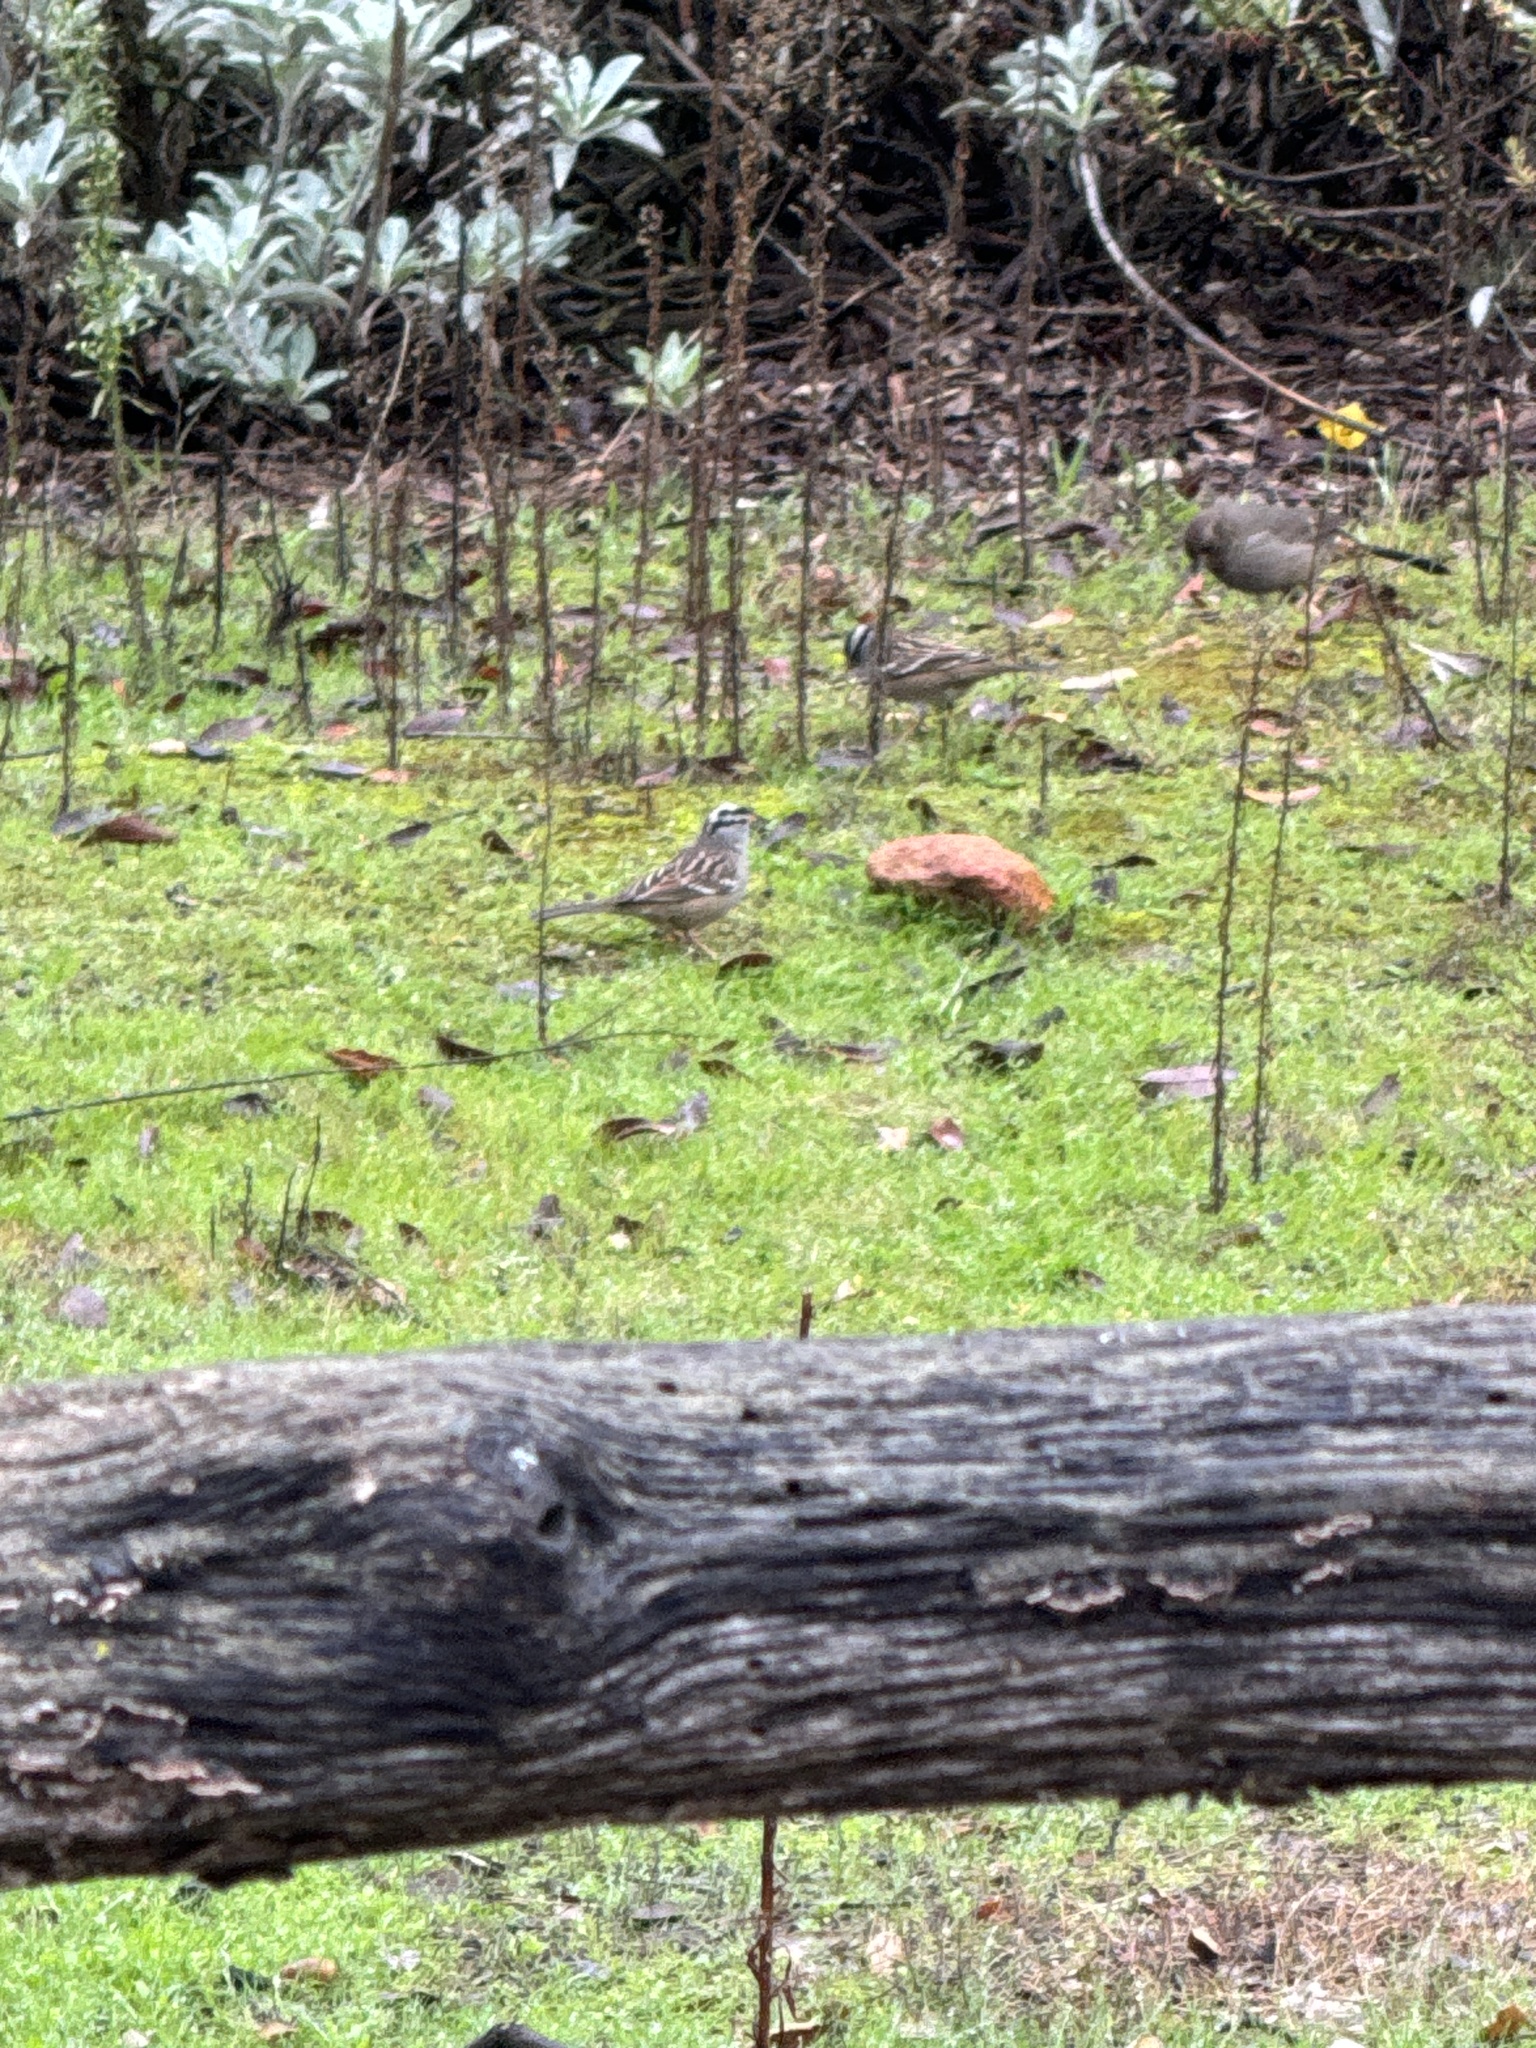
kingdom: Animalia
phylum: Chordata
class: Aves
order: Passeriformes
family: Passerellidae
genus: Zonotrichia
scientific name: Zonotrichia leucophrys
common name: White-crowned sparrow
